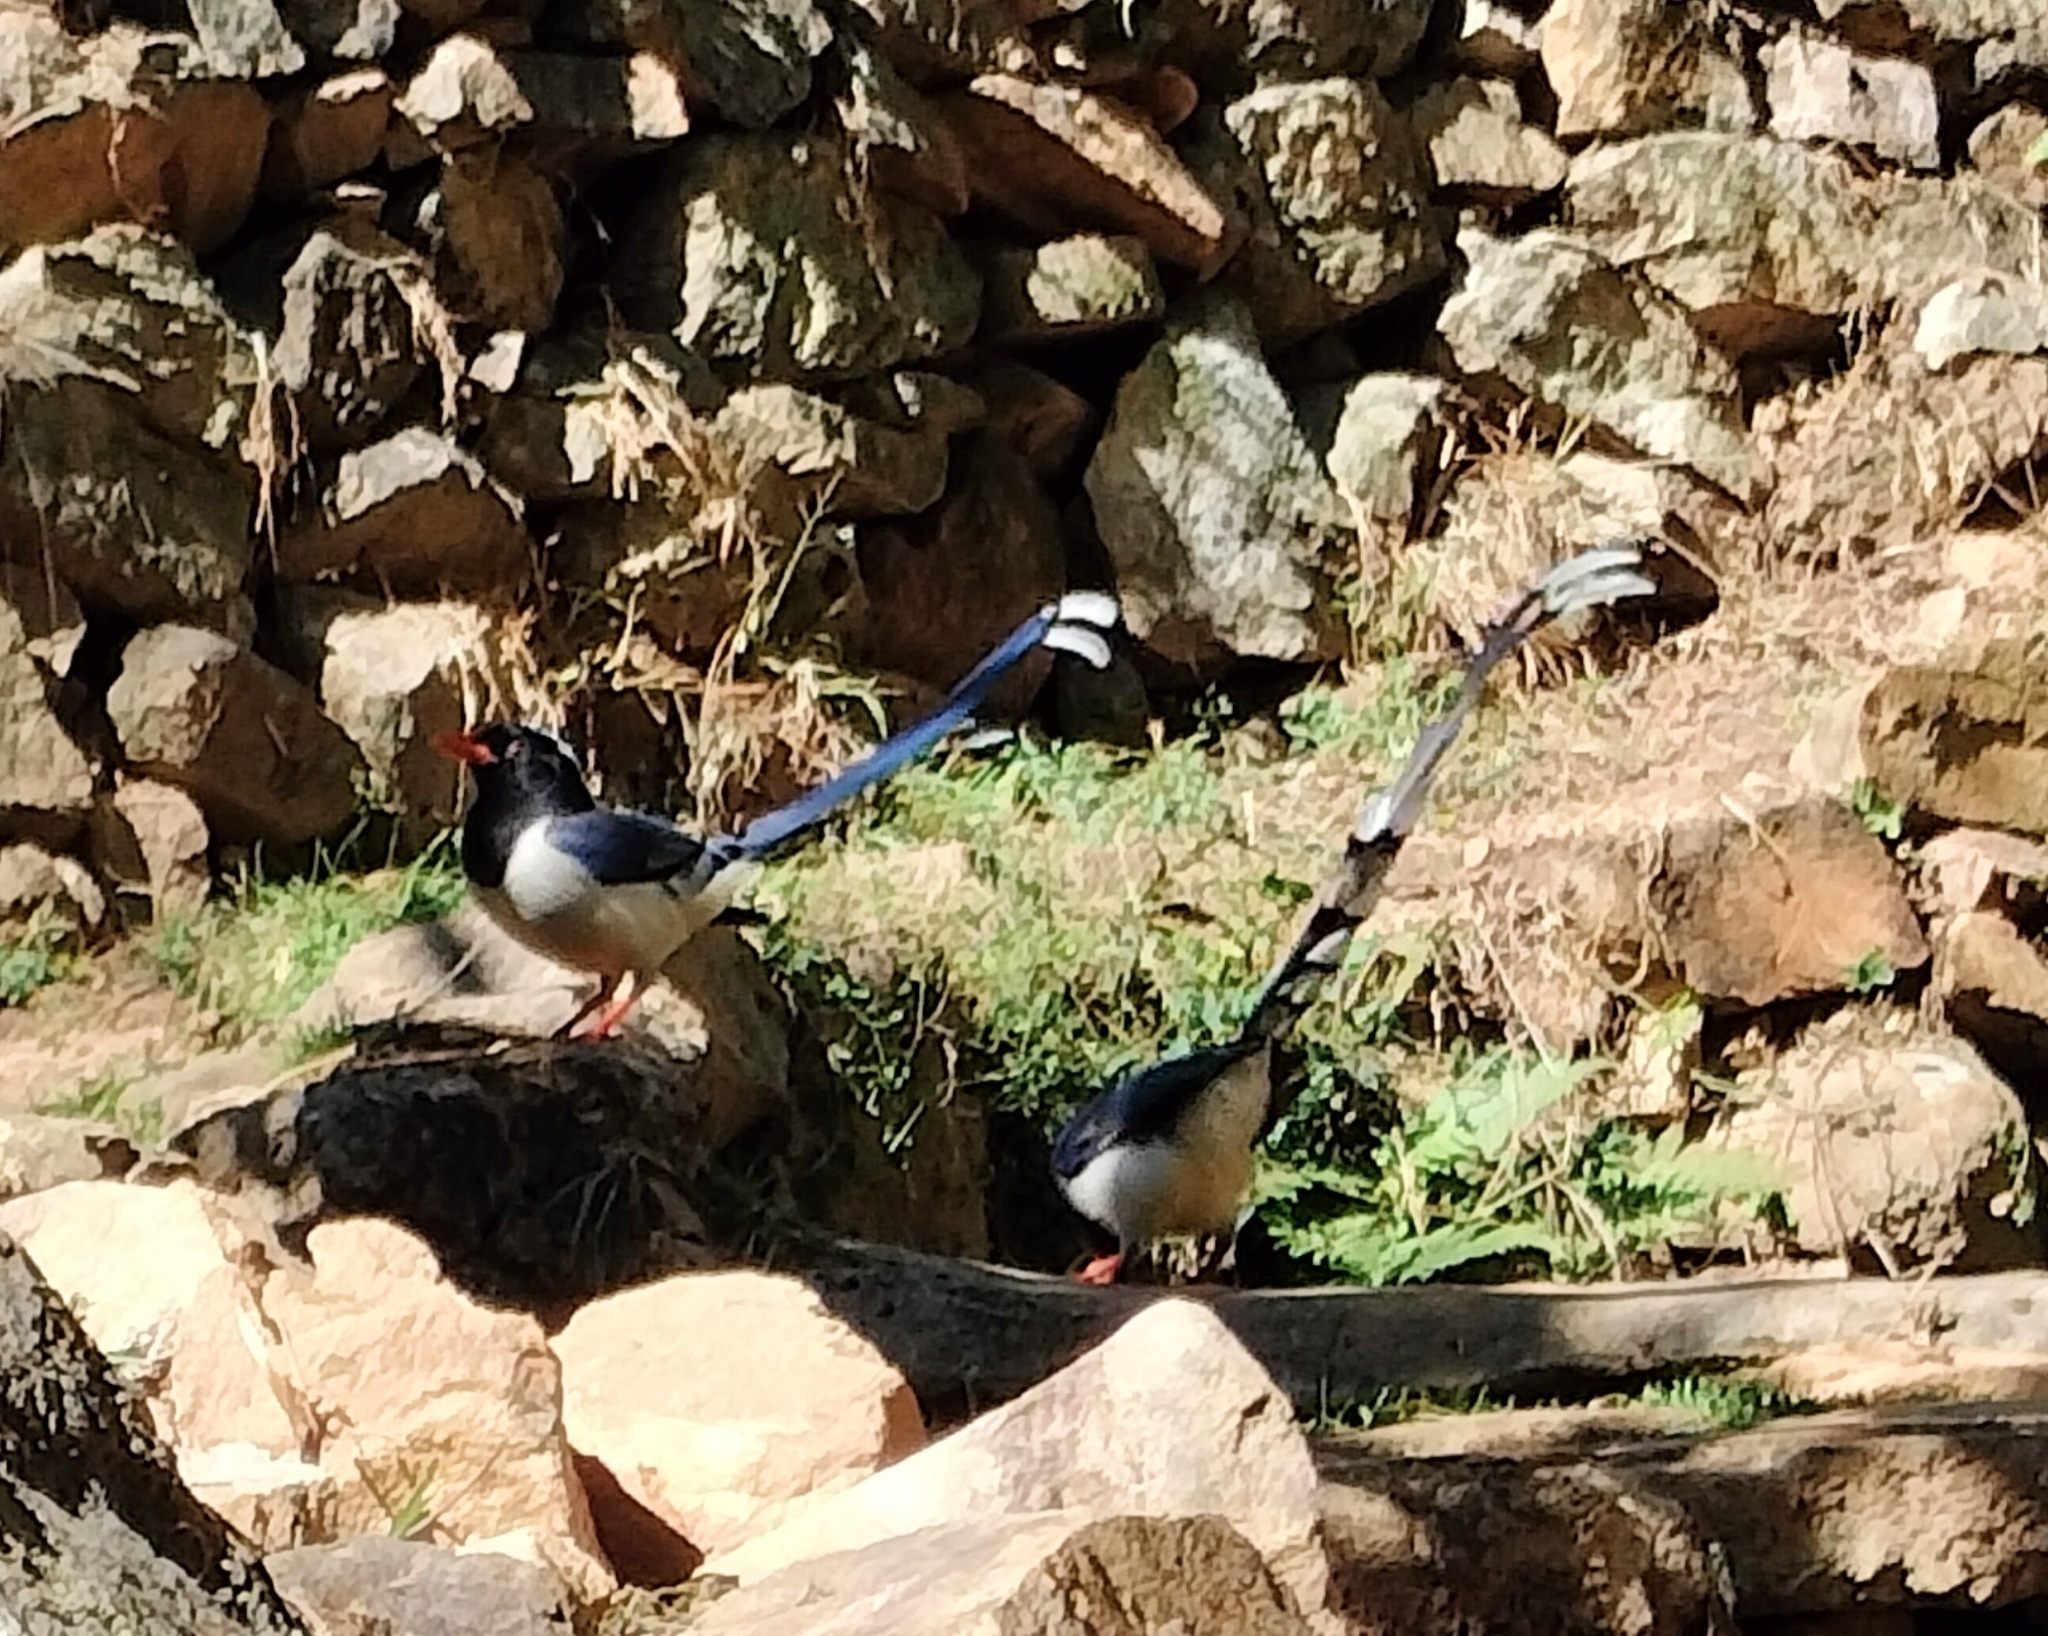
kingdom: Animalia
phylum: Chordata
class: Aves
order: Passeriformes
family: Corvidae
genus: Urocissa
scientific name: Urocissa erythroryncha
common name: Red-billed blue magpie
